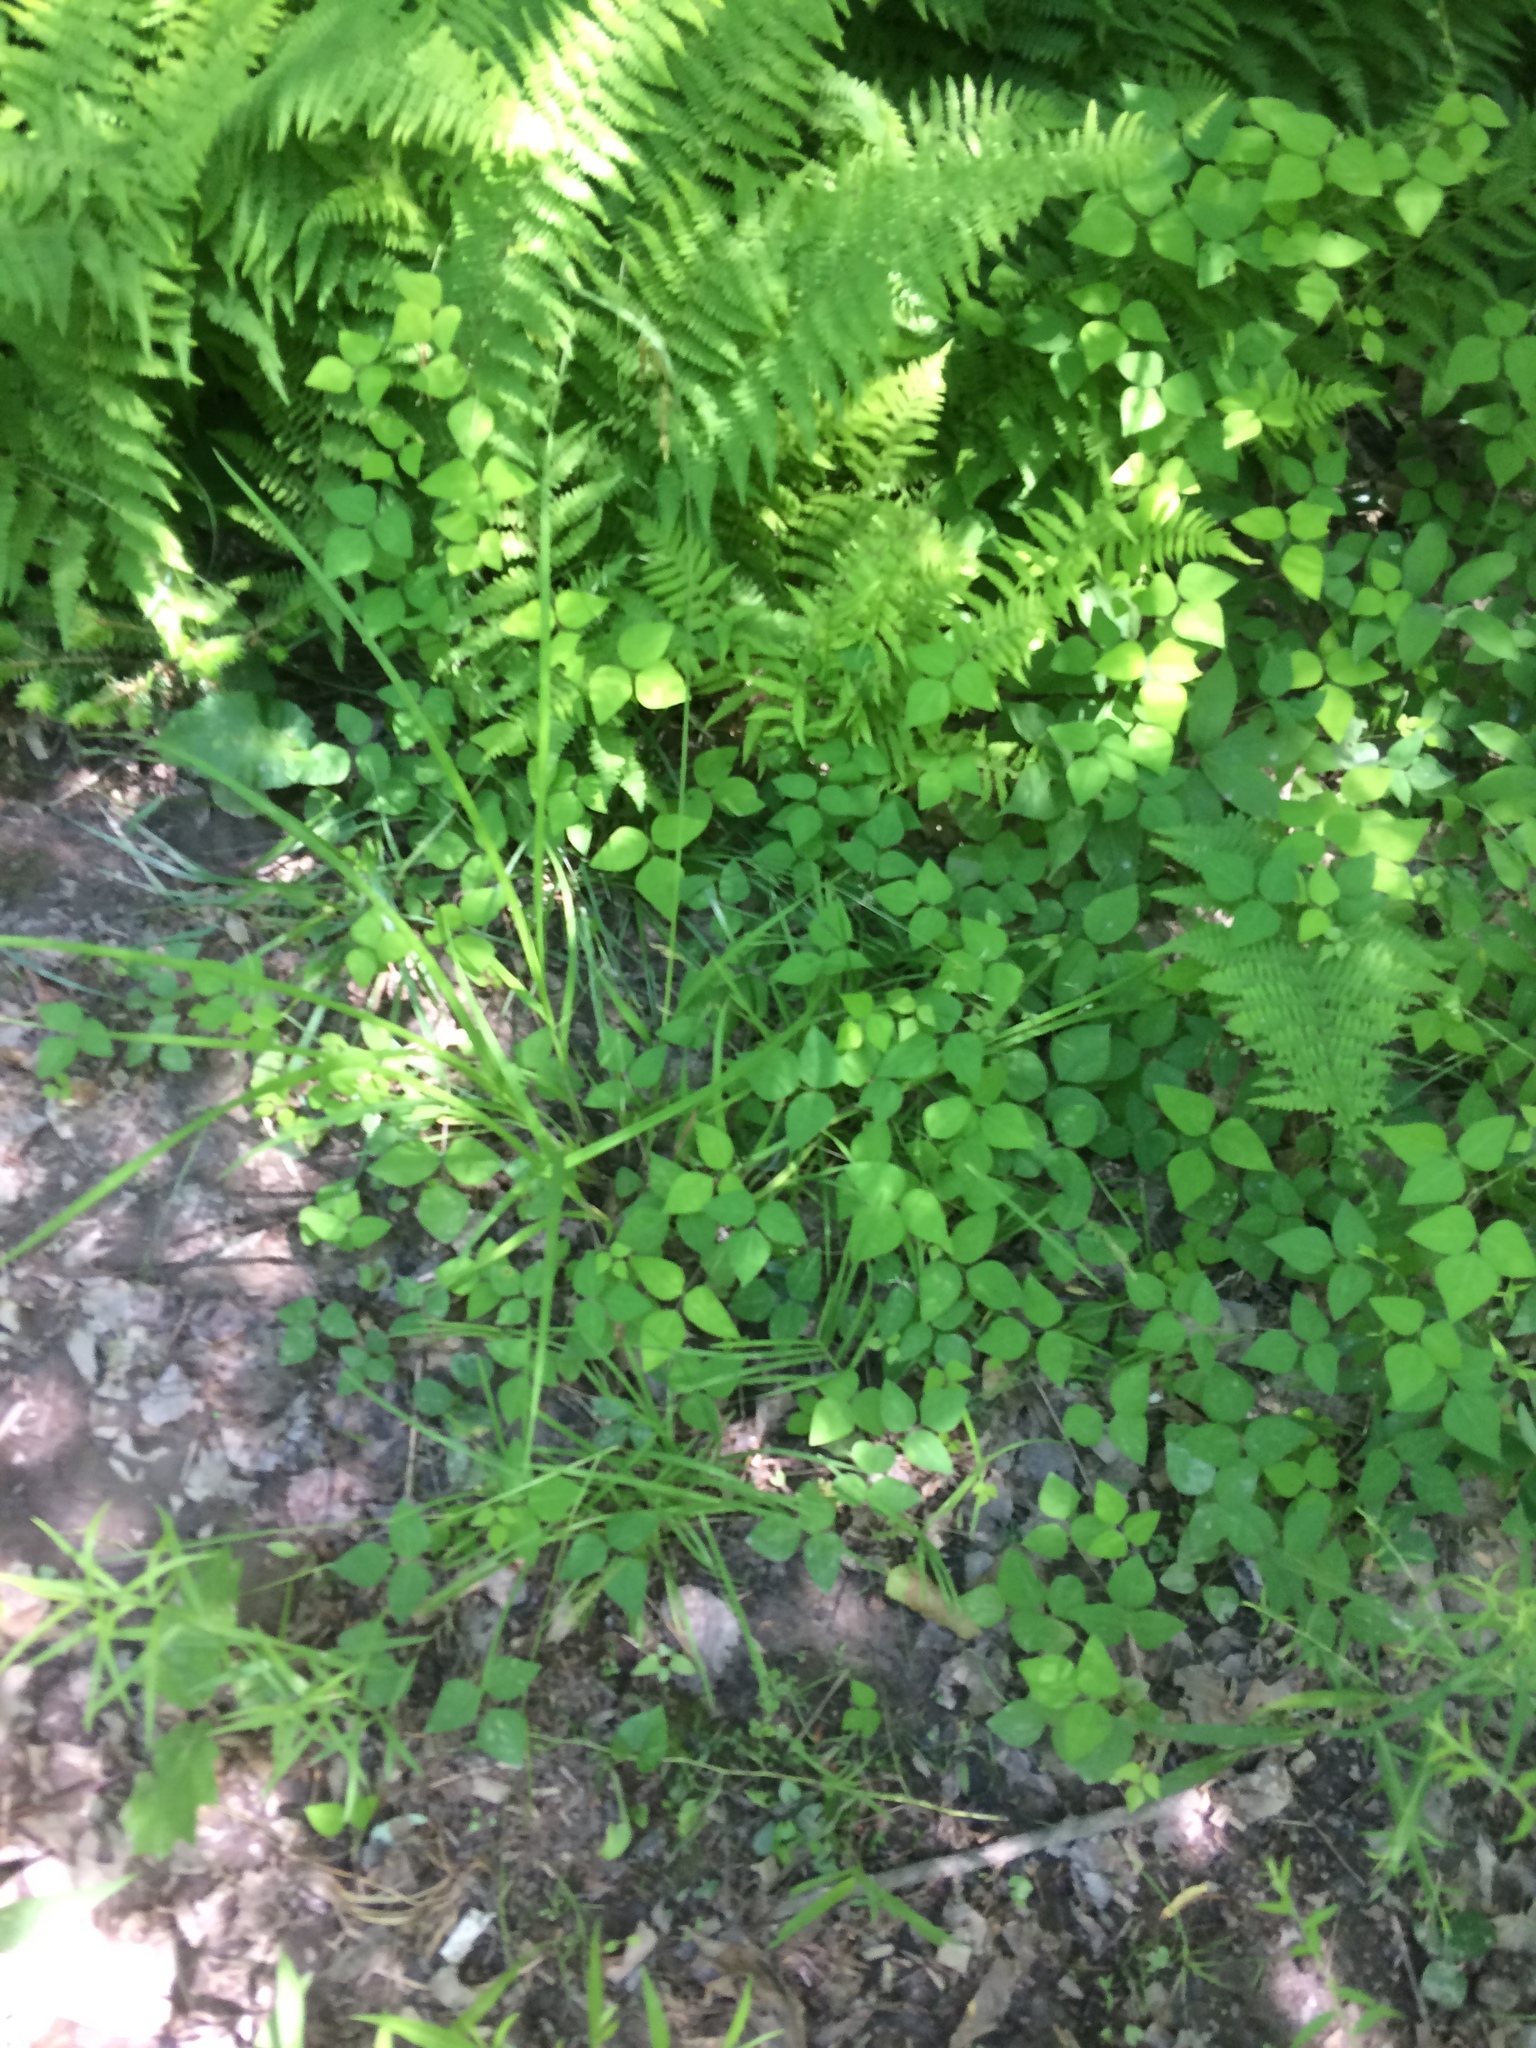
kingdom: Plantae
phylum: Tracheophyta
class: Magnoliopsida
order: Fabales
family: Fabaceae
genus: Amphicarpaea
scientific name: Amphicarpaea bracteata
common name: American hog peanut
